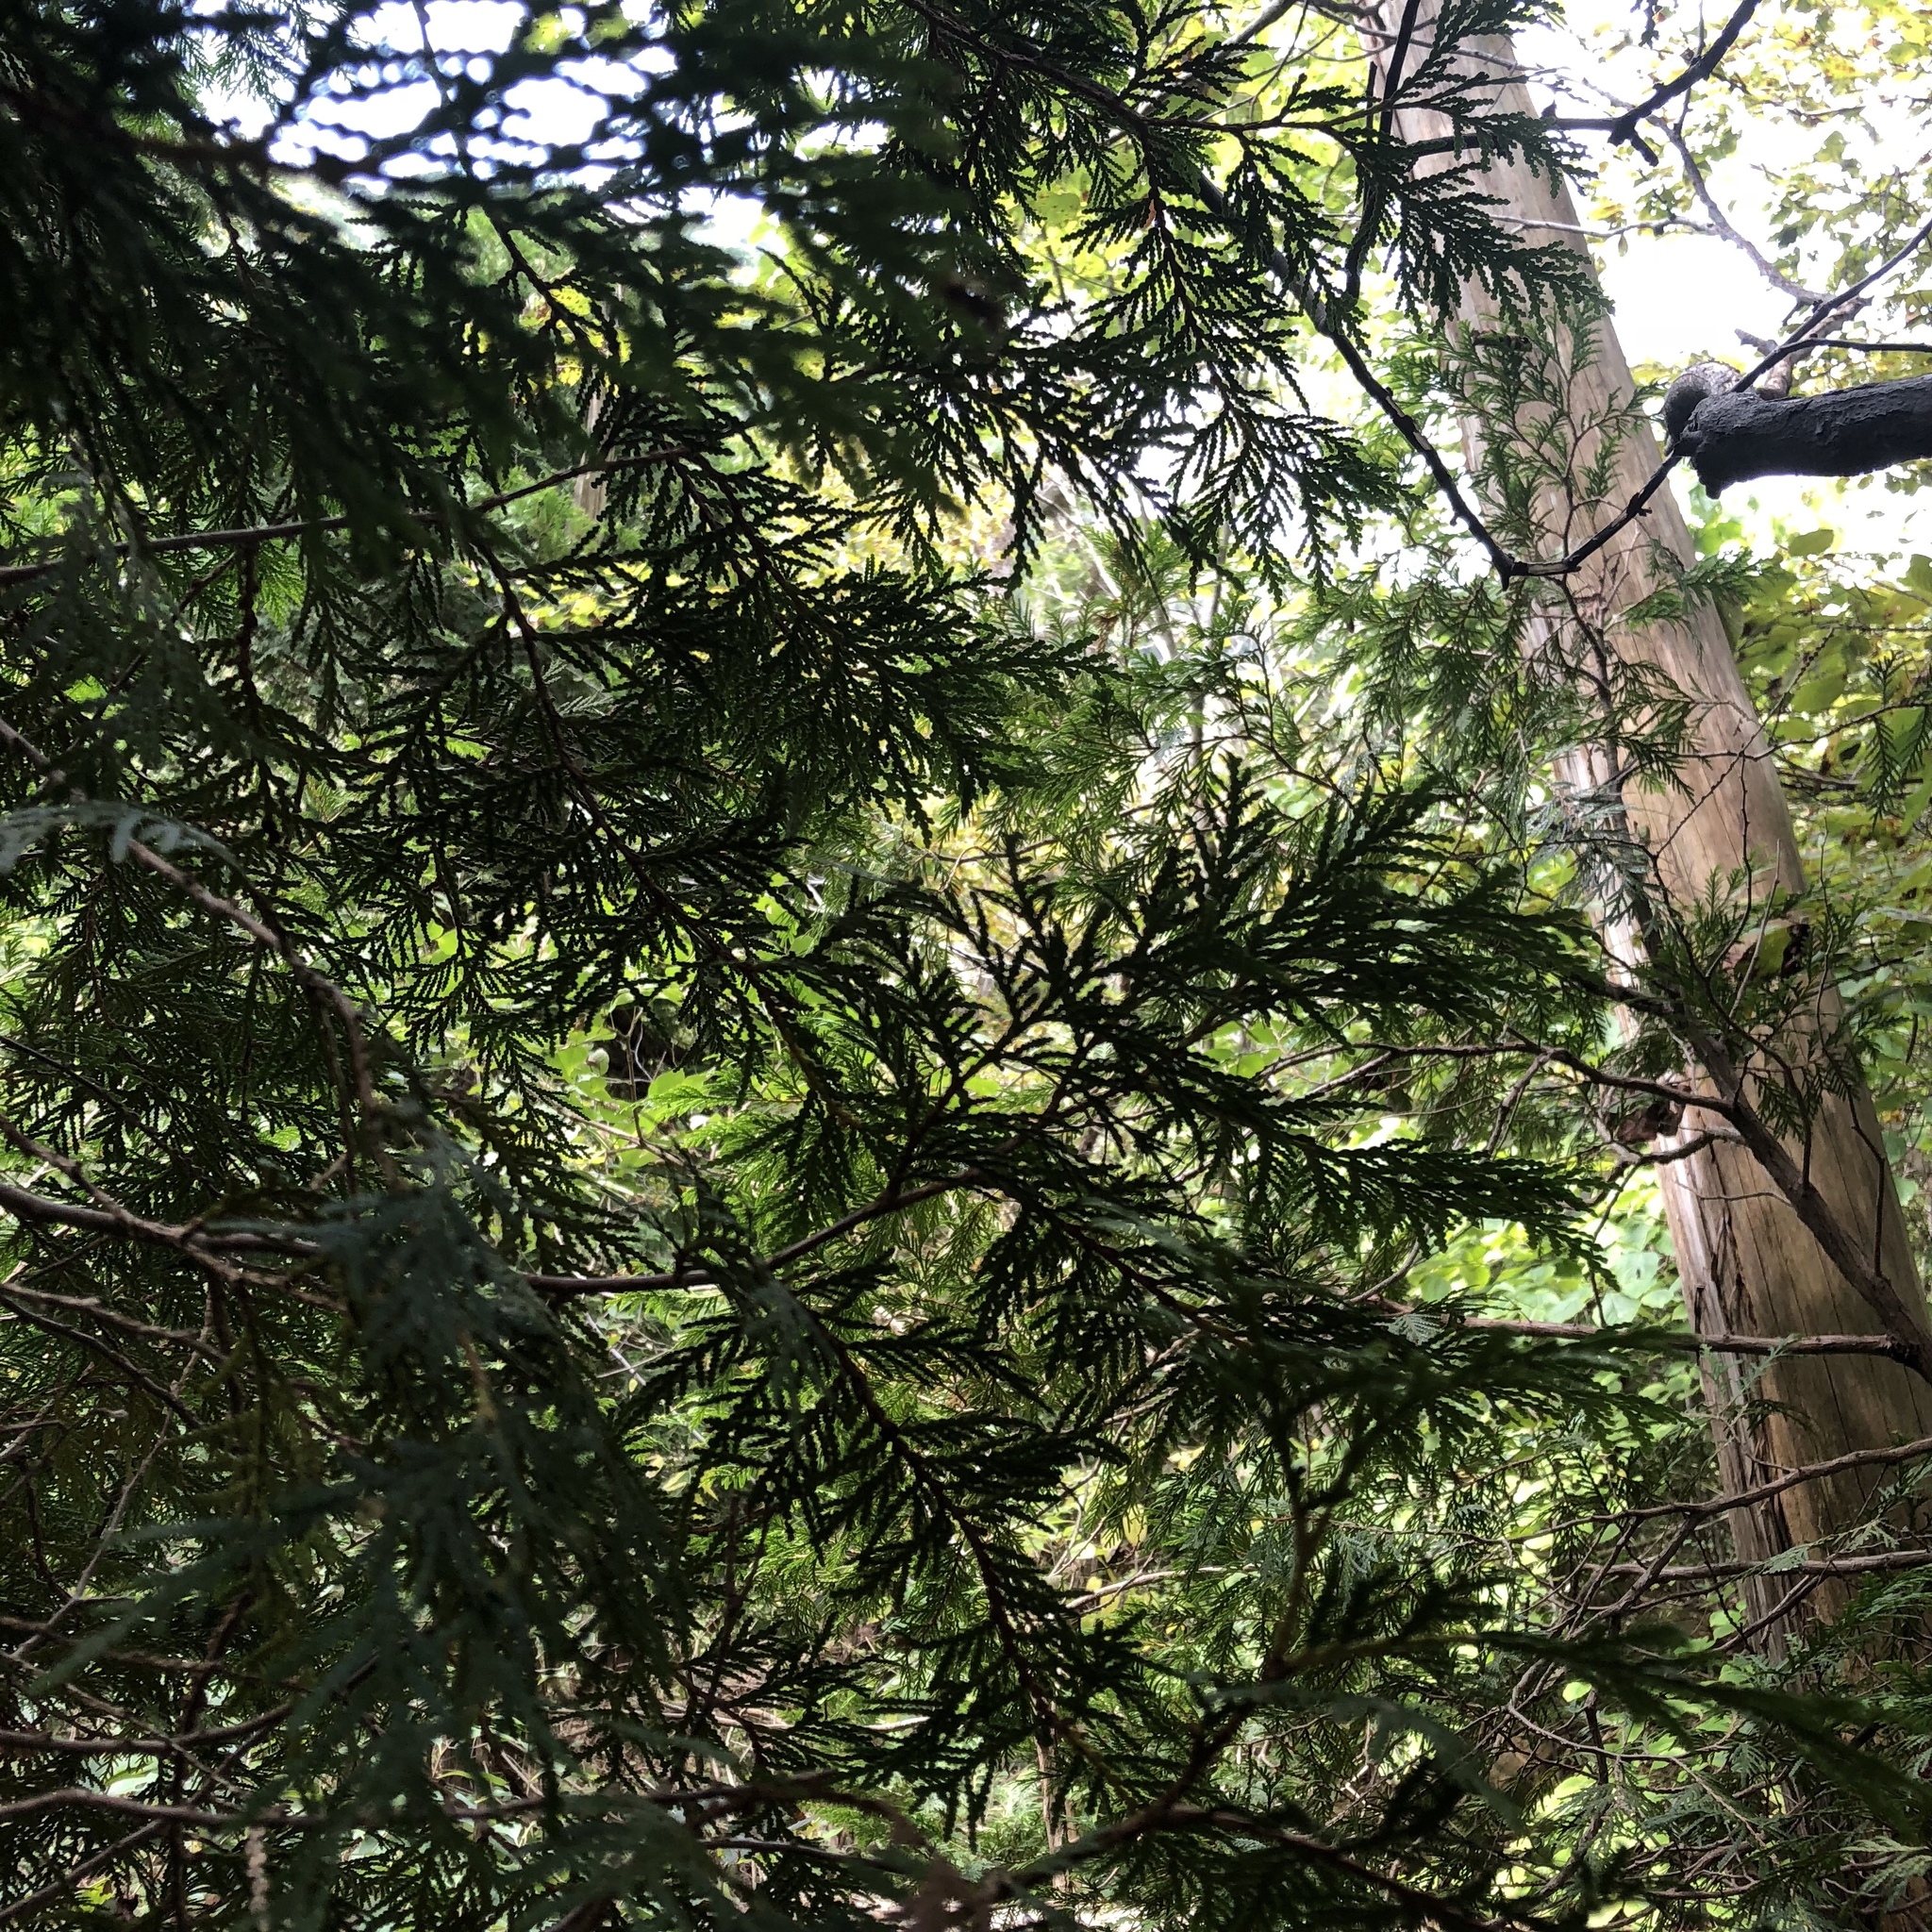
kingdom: Plantae
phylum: Tracheophyta
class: Pinopsida
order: Pinales
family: Cupressaceae
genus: Thuja
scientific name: Thuja occidentalis
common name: Northern white-cedar
